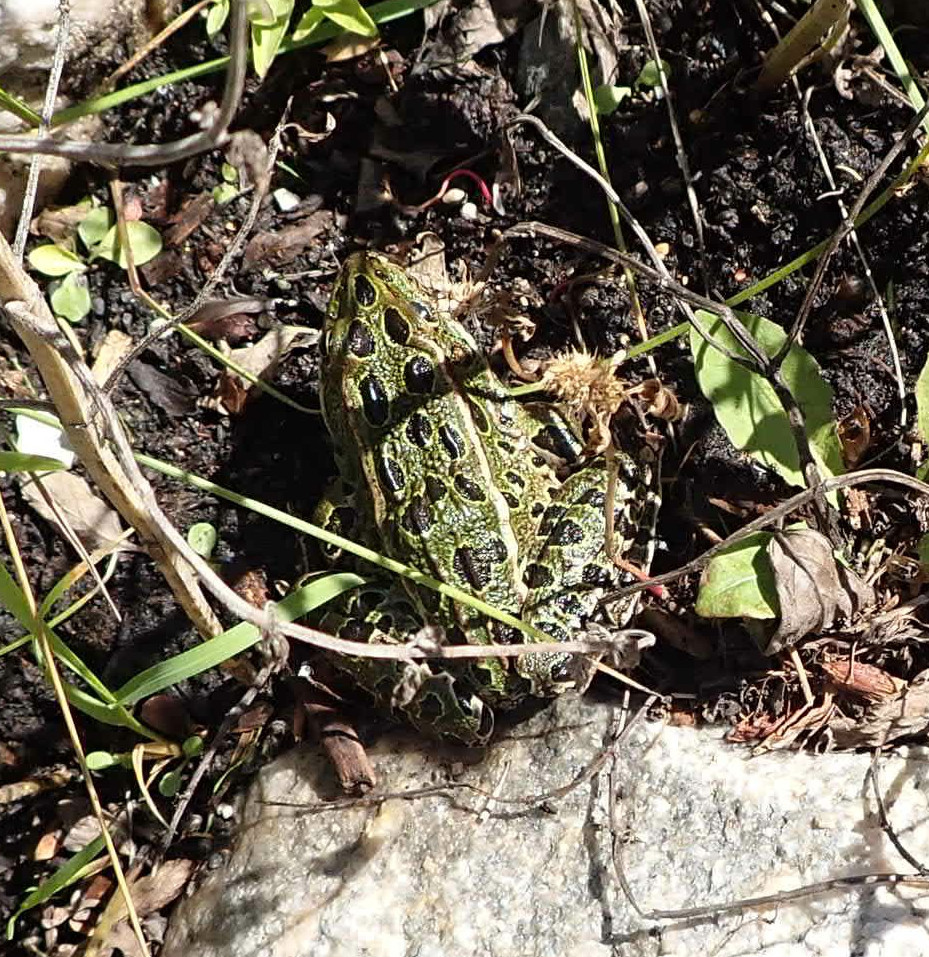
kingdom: Animalia
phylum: Chordata
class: Amphibia
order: Anura
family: Ranidae
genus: Lithobates
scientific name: Lithobates pipiens
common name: Northern leopard frog
